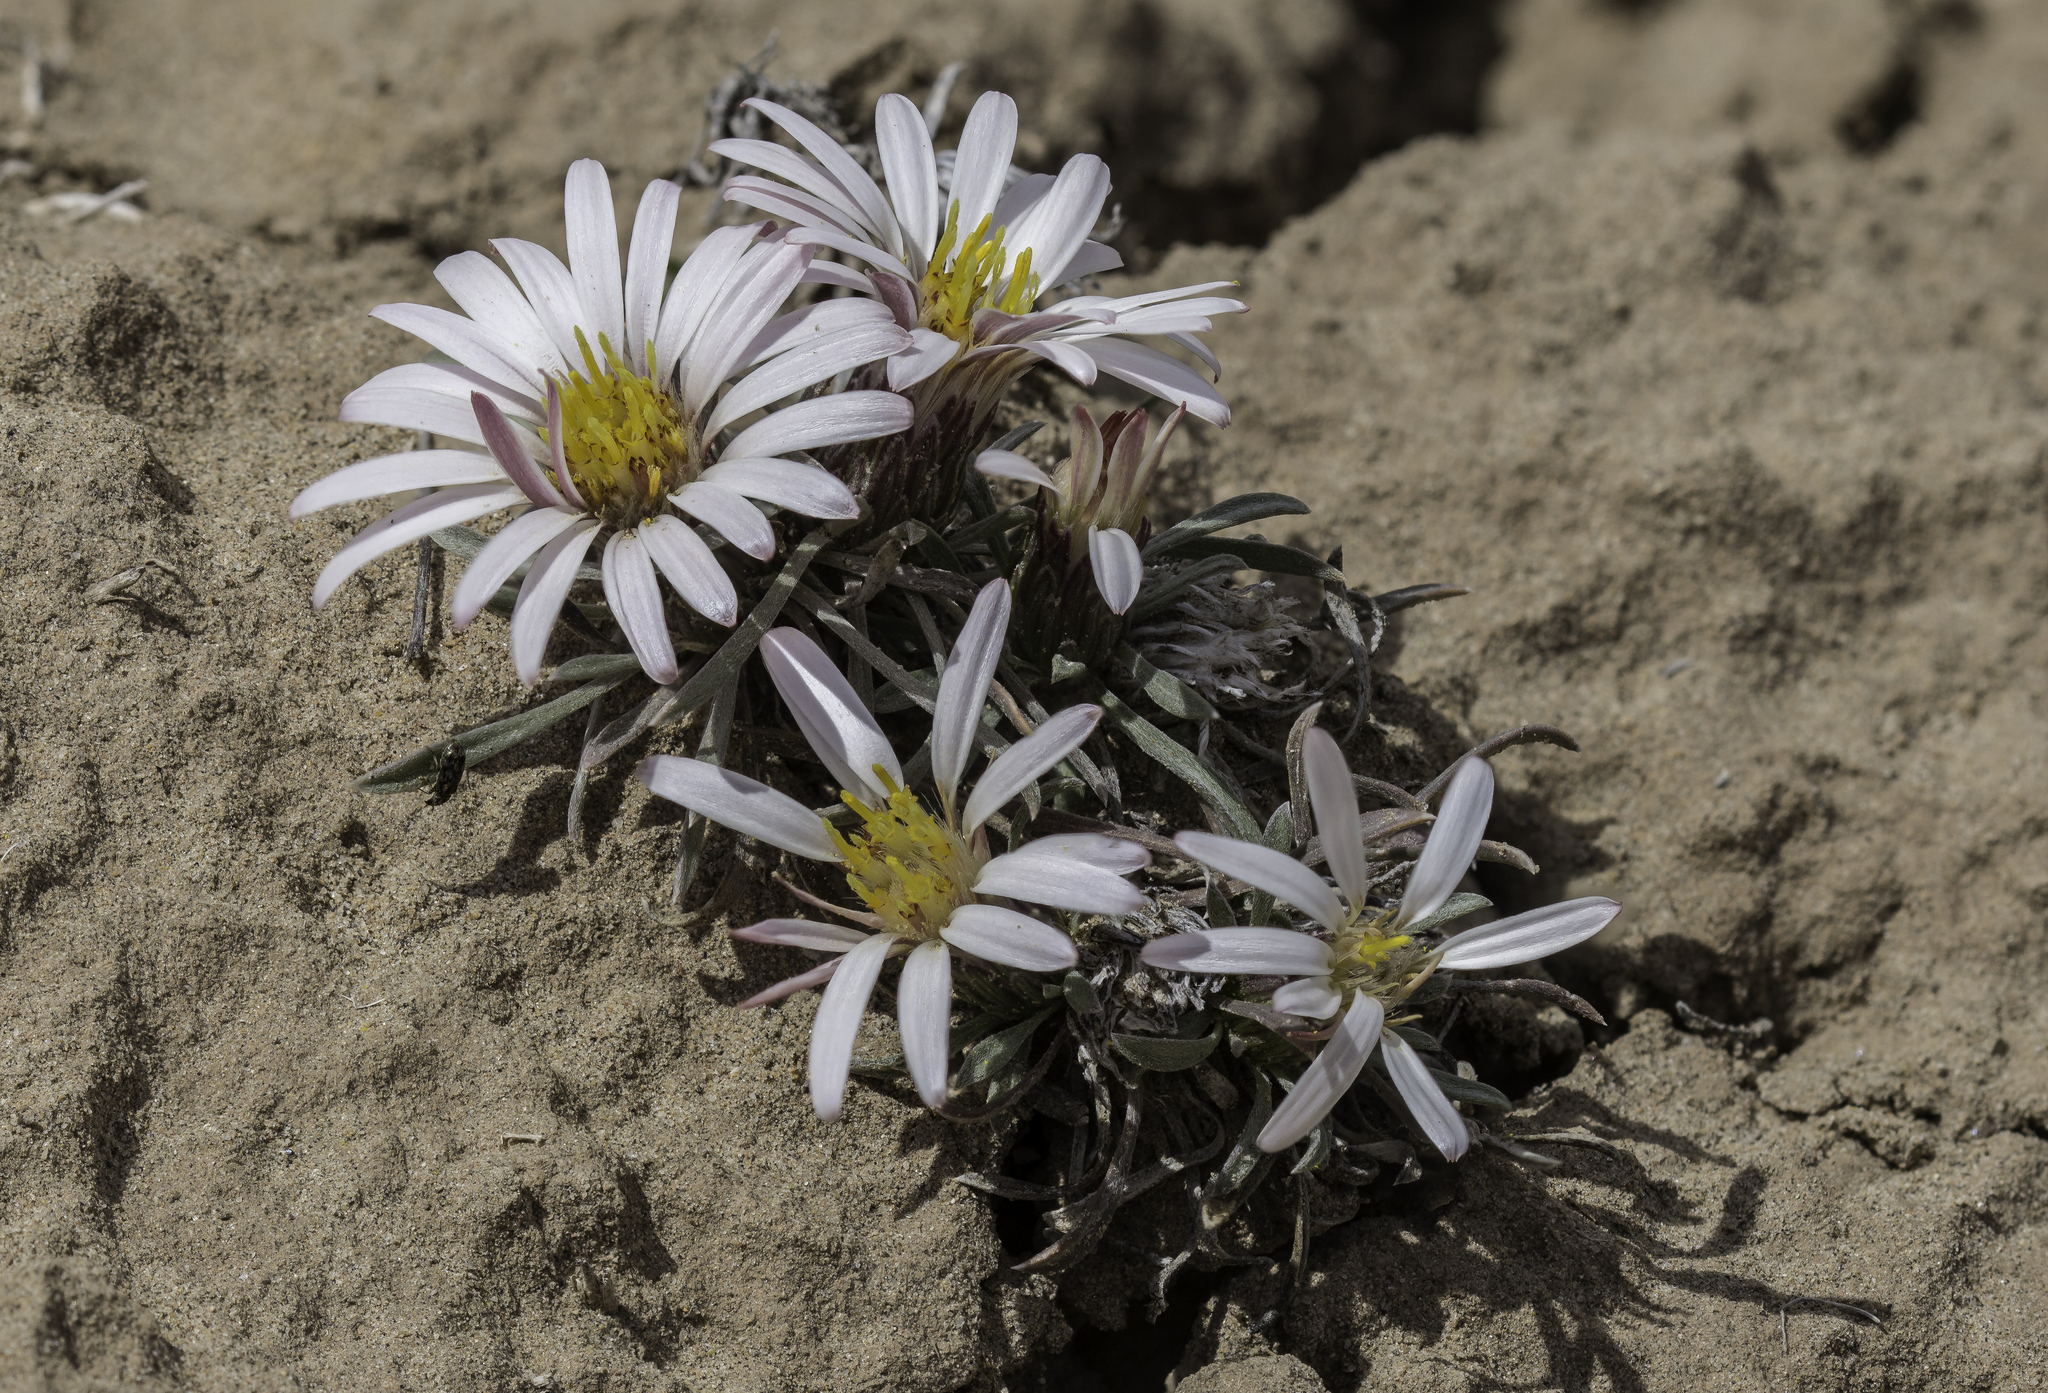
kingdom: Plantae
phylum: Tracheophyta
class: Magnoliopsida
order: Asterales
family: Asteraceae
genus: Townsendia
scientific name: Townsendia exscapa
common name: Dwarf townsendia
